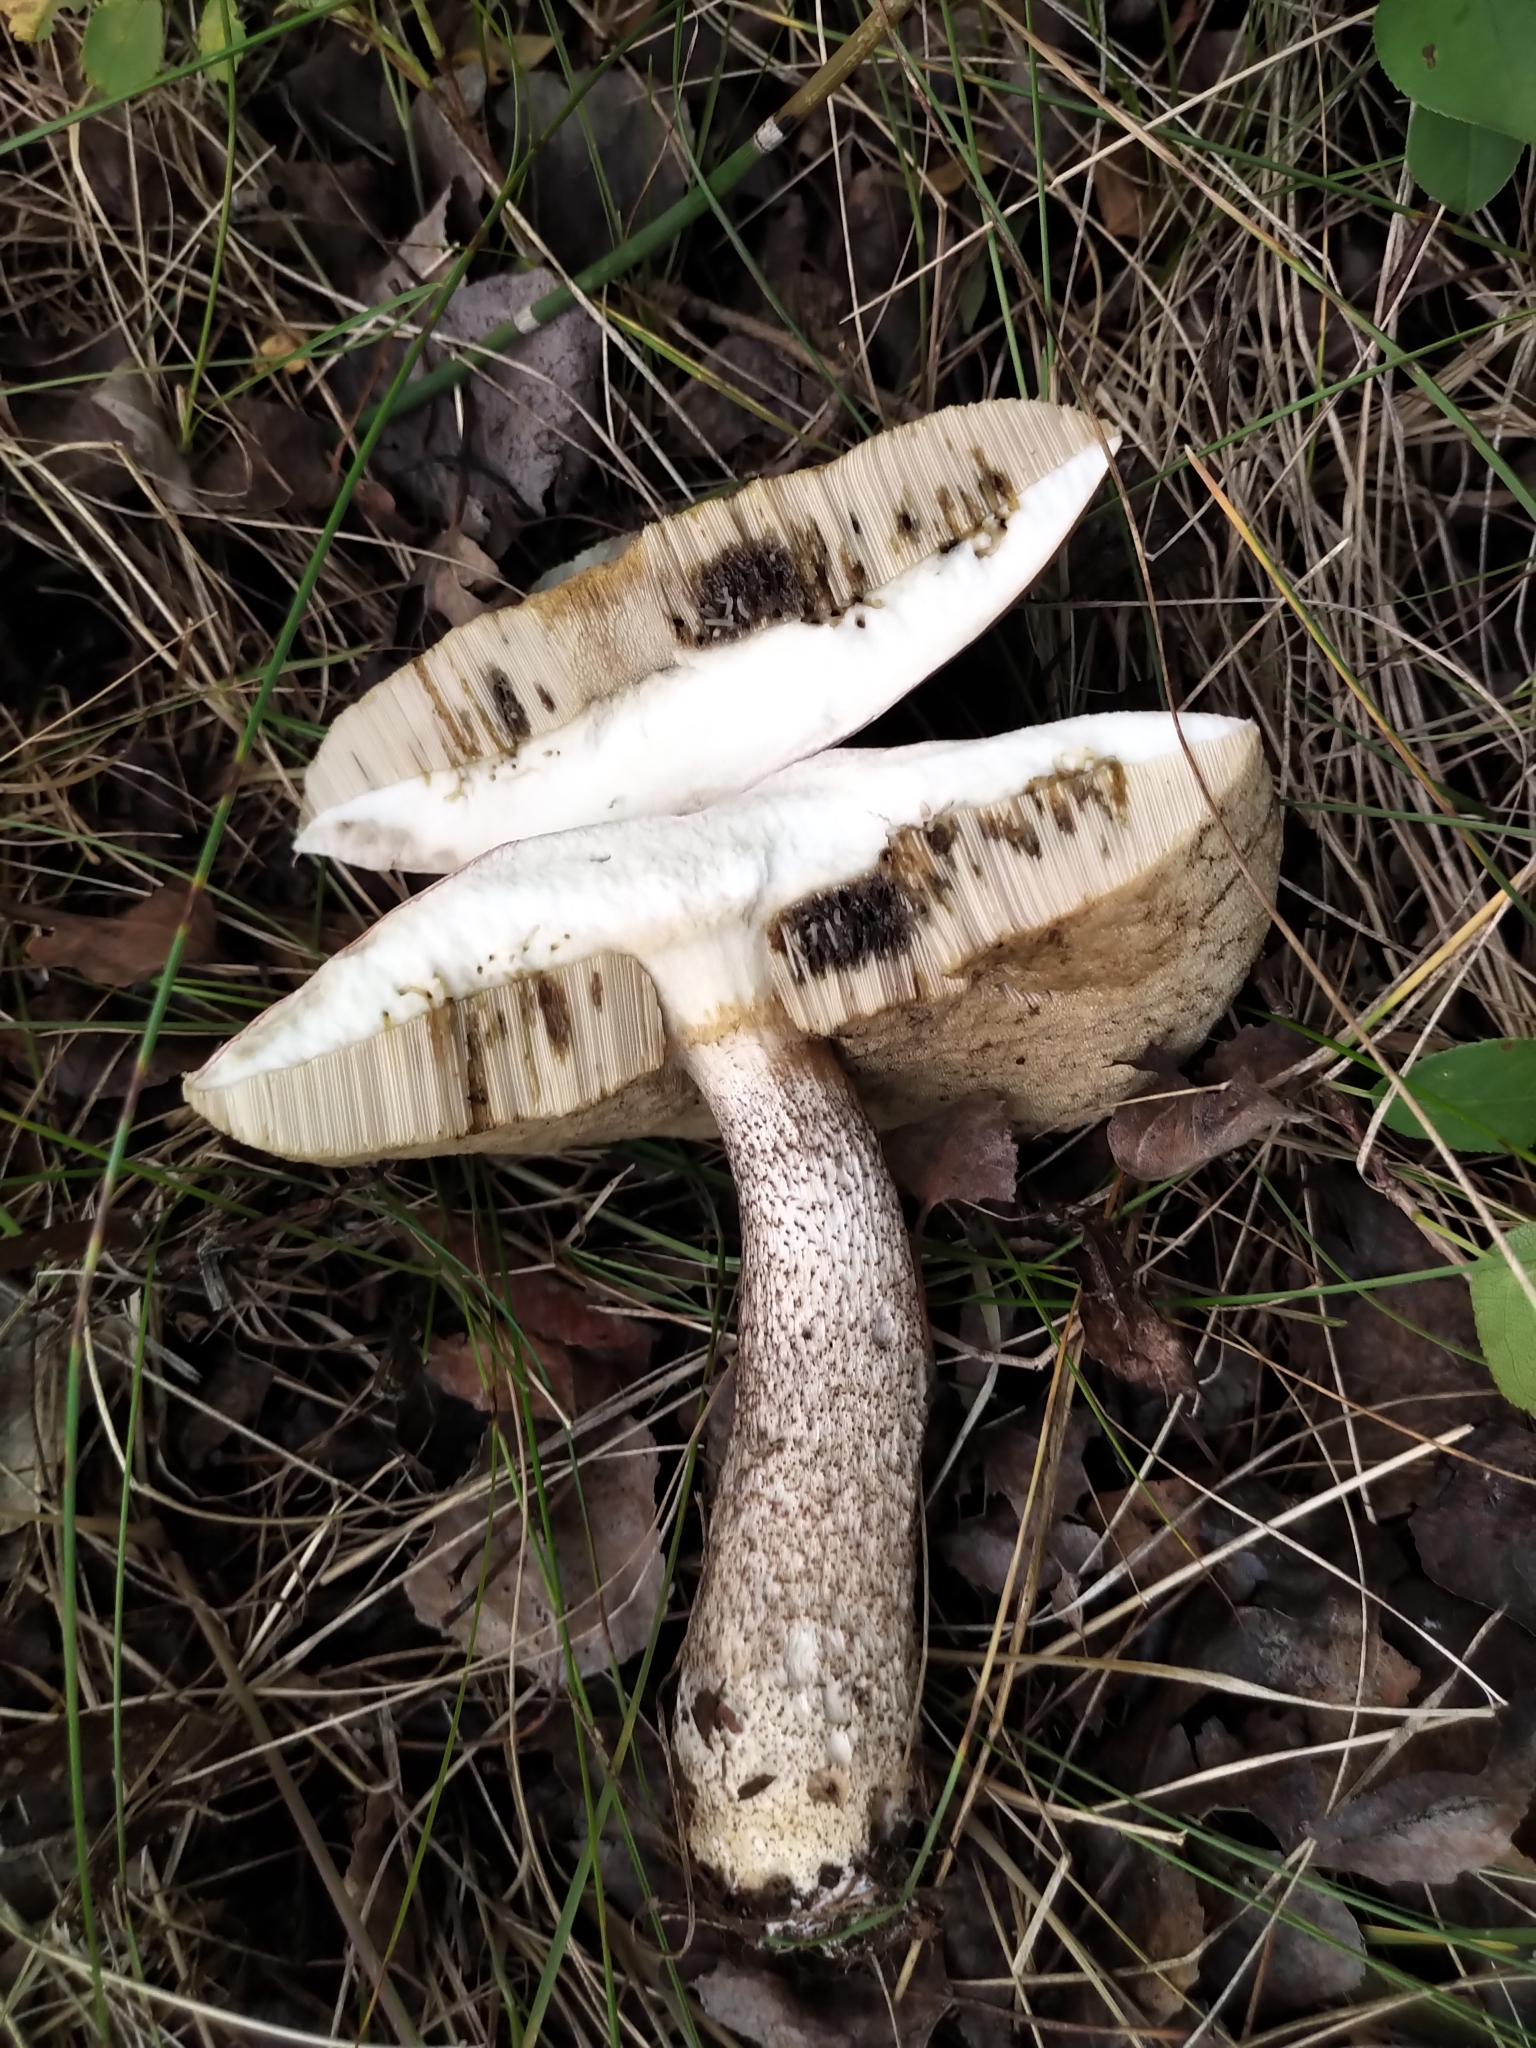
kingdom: Fungi
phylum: Basidiomycota
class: Agaricomycetes
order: Boletales
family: Boletaceae
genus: Leccinum
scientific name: Leccinum aurantiacum
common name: Orange bolete
